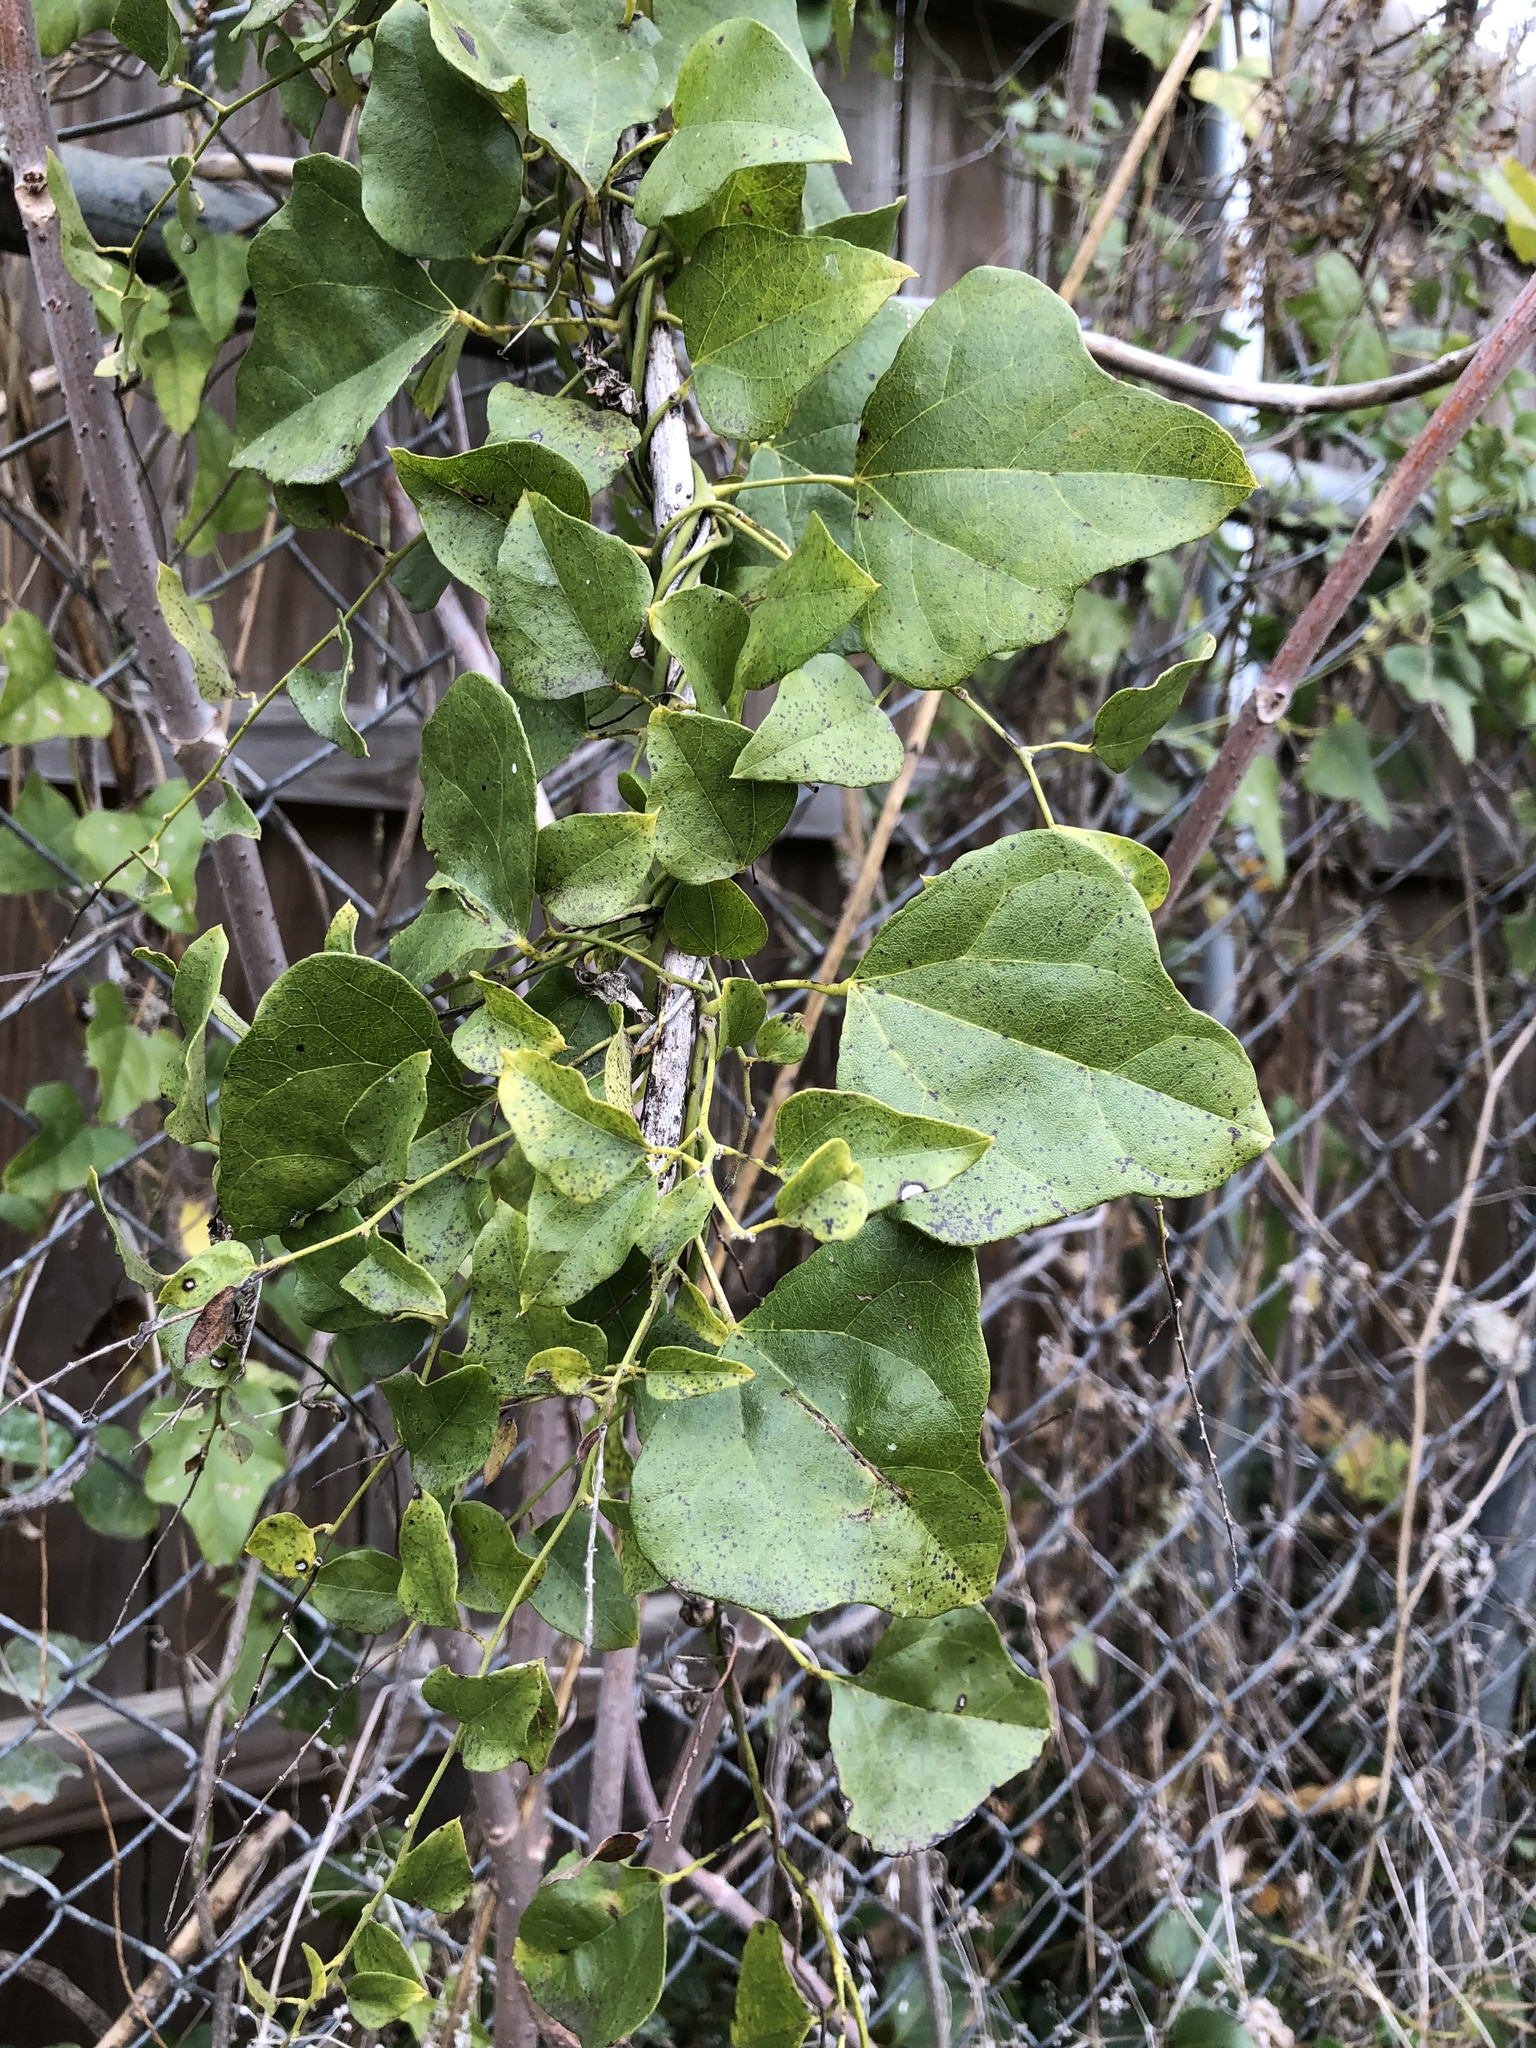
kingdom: Plantae
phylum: Tracheophyta
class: Magnoliopsida
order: Ranunculales
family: Menispermaceae
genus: Cocculus
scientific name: Cocculus carolinus
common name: Carolina moonseed
